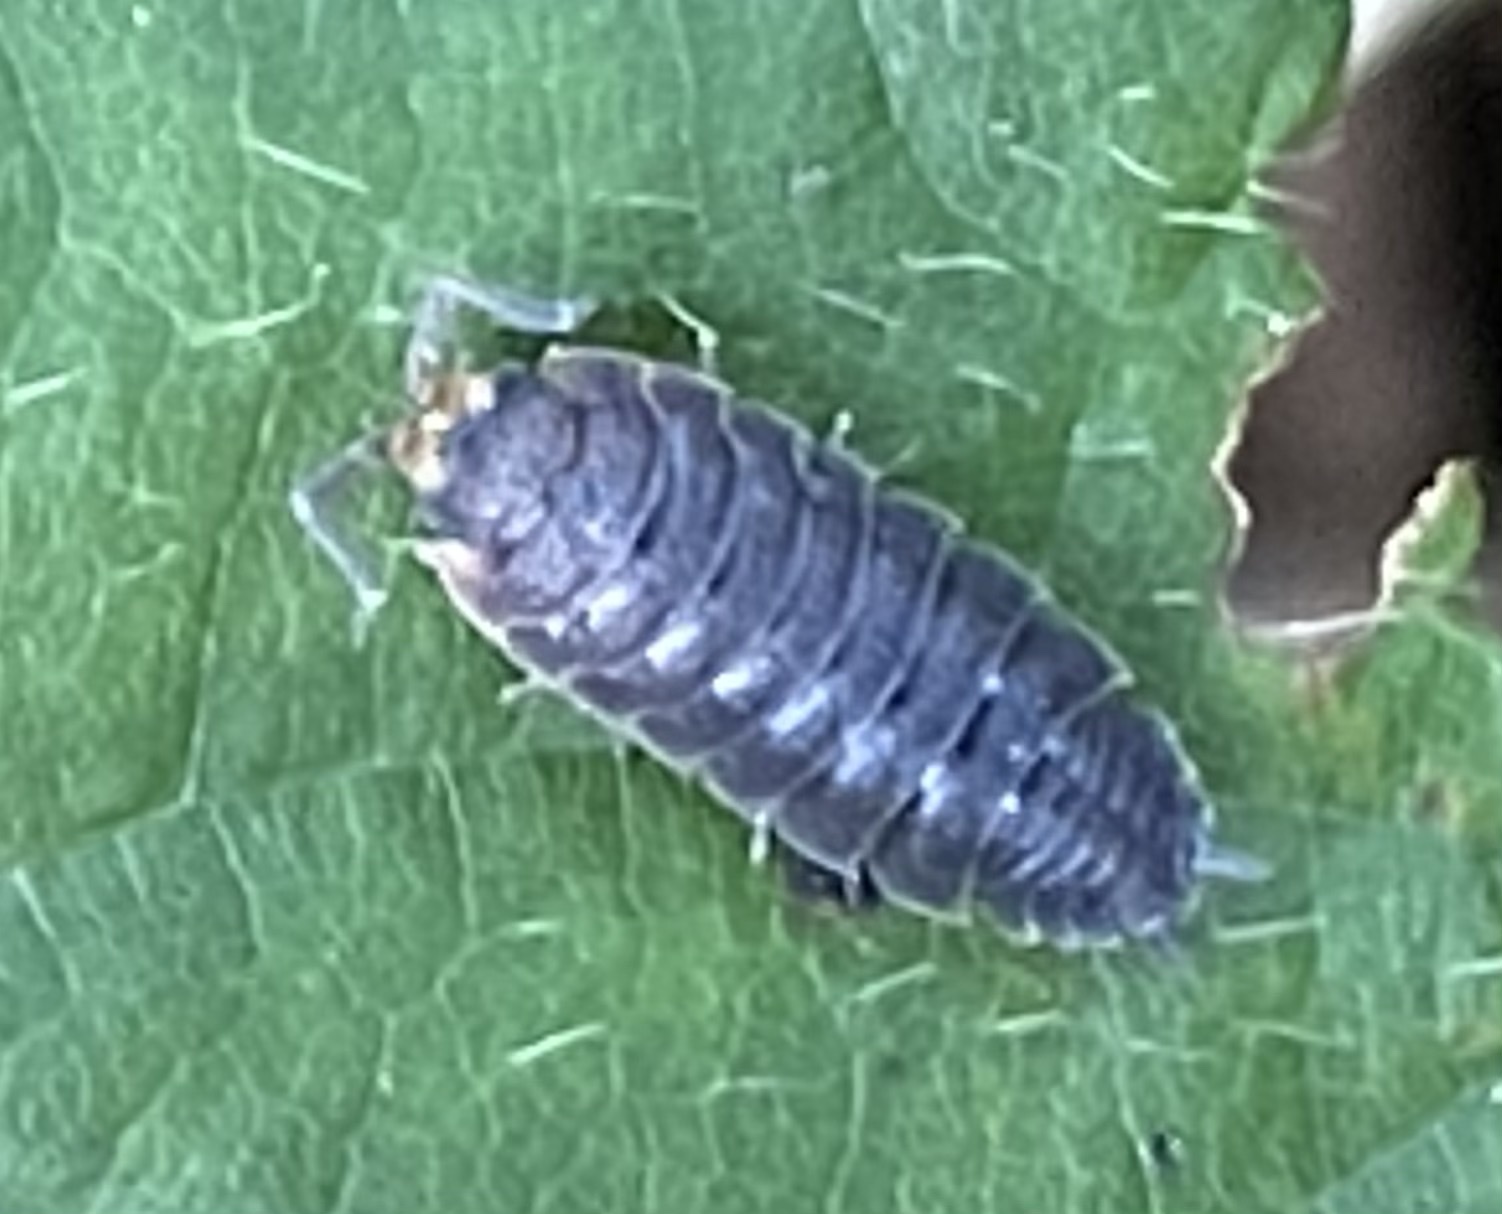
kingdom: Animalia
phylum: Arthropoda
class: Malacostraca
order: Isopoda
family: Porcellionidae
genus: Porcellio
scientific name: Porcellio scaber
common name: Common rough woodlouse
